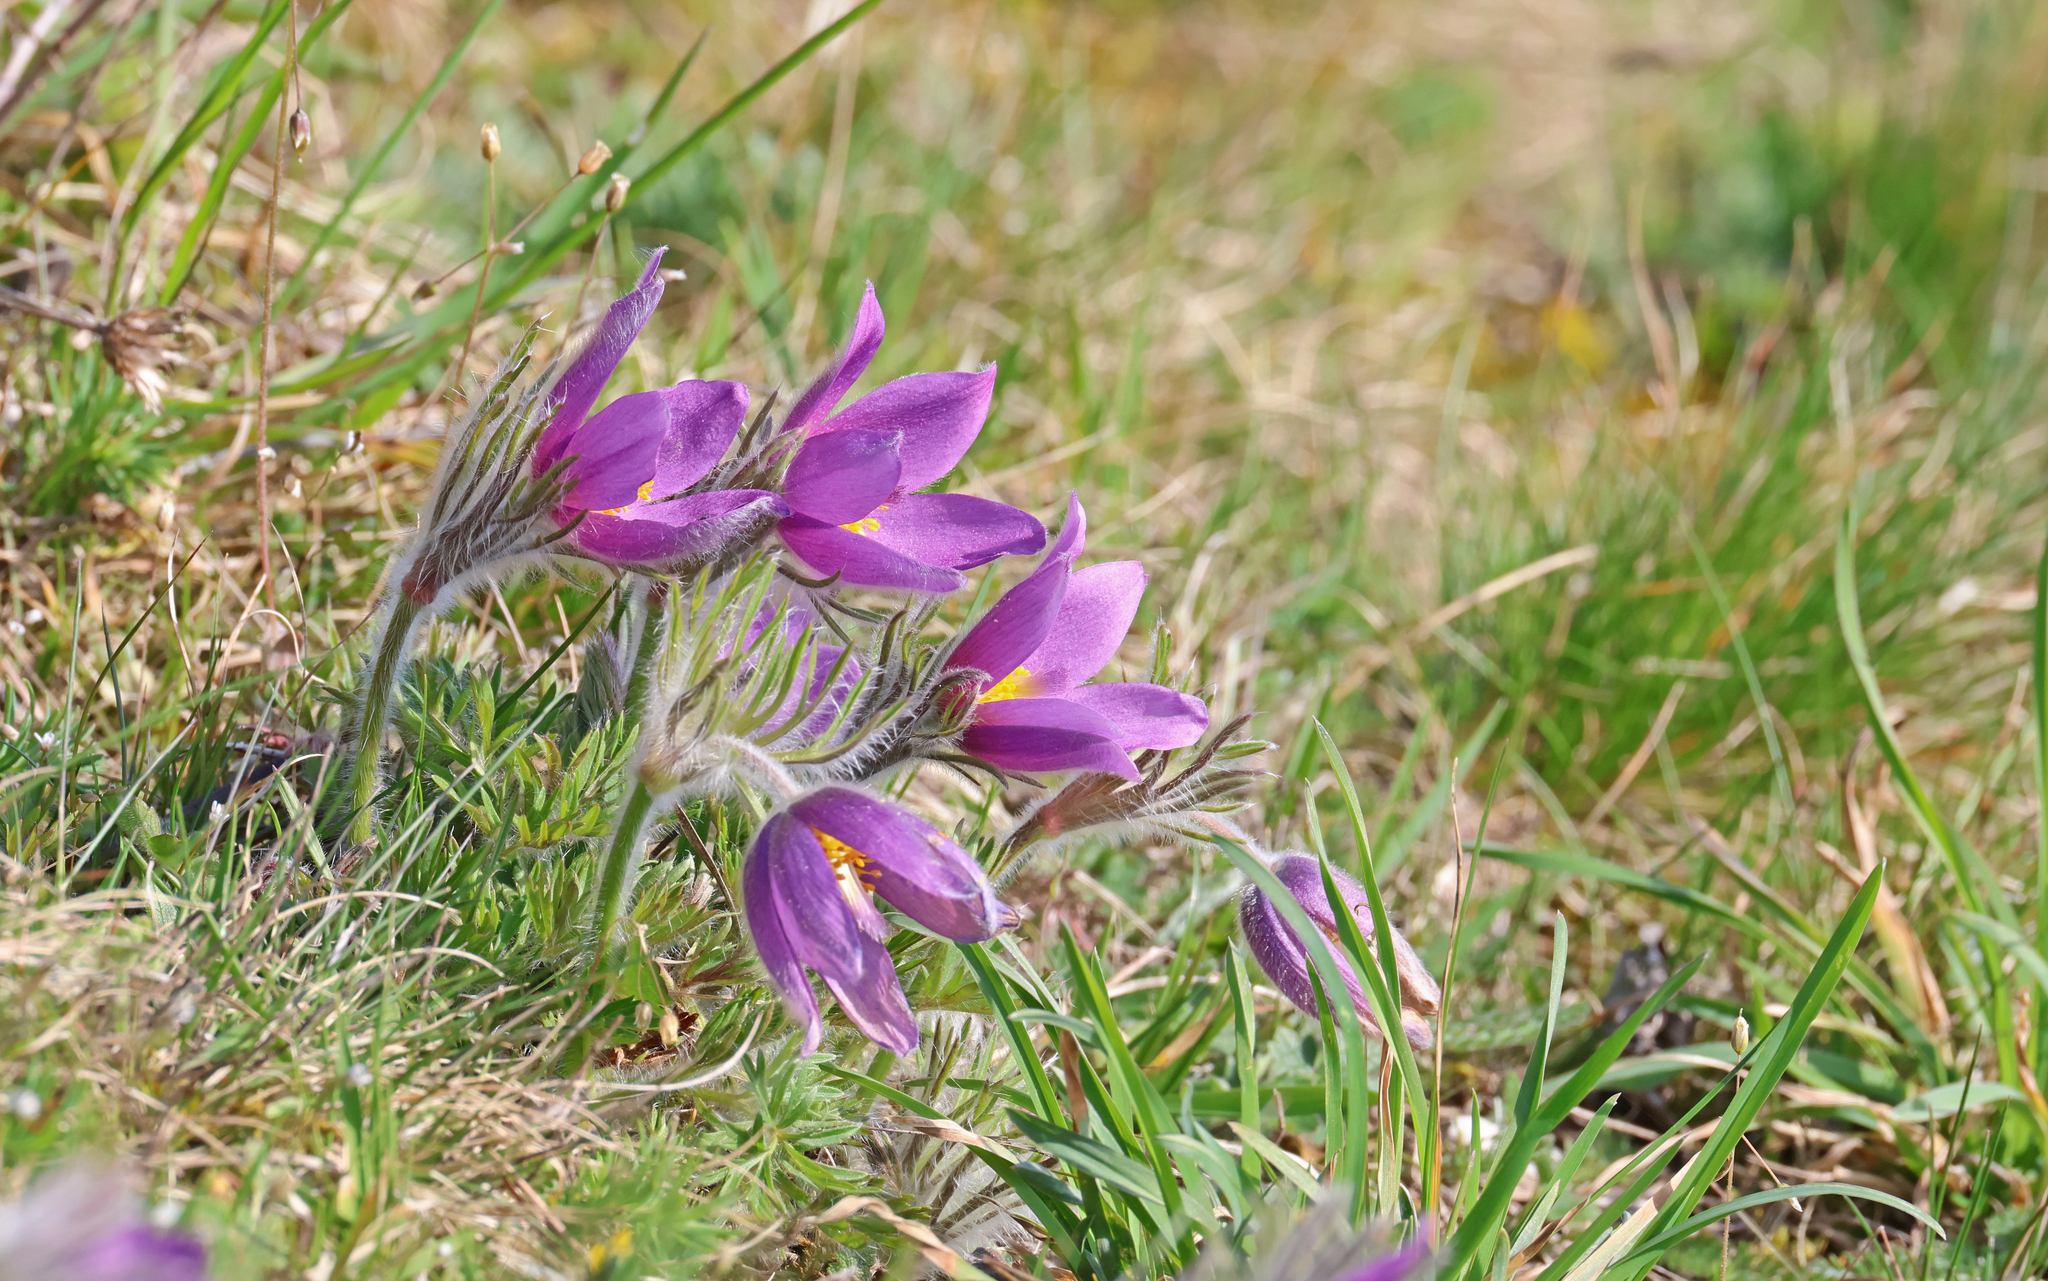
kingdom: Plantae
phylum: Tracheophyta
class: Magnoliopsida
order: Ranunculales
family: Ranunculaceae
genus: Pulsatilla
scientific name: Pulsatilla vulgaris
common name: Pasqueflower
